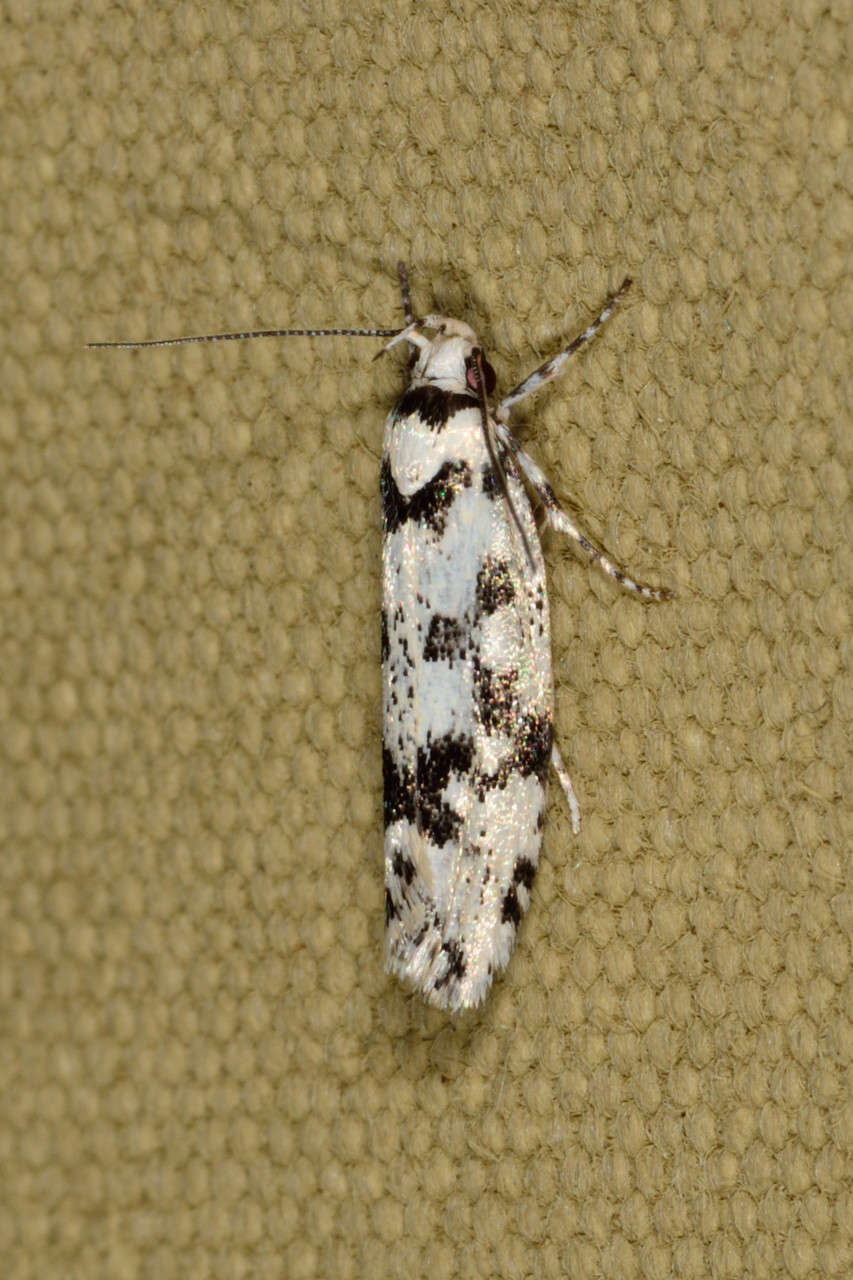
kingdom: Animalia
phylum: Arthropoda
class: Insecta
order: Lepidoptera
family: Xyloryctidae
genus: Lichenaula
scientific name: Lichenaula calligrapha
